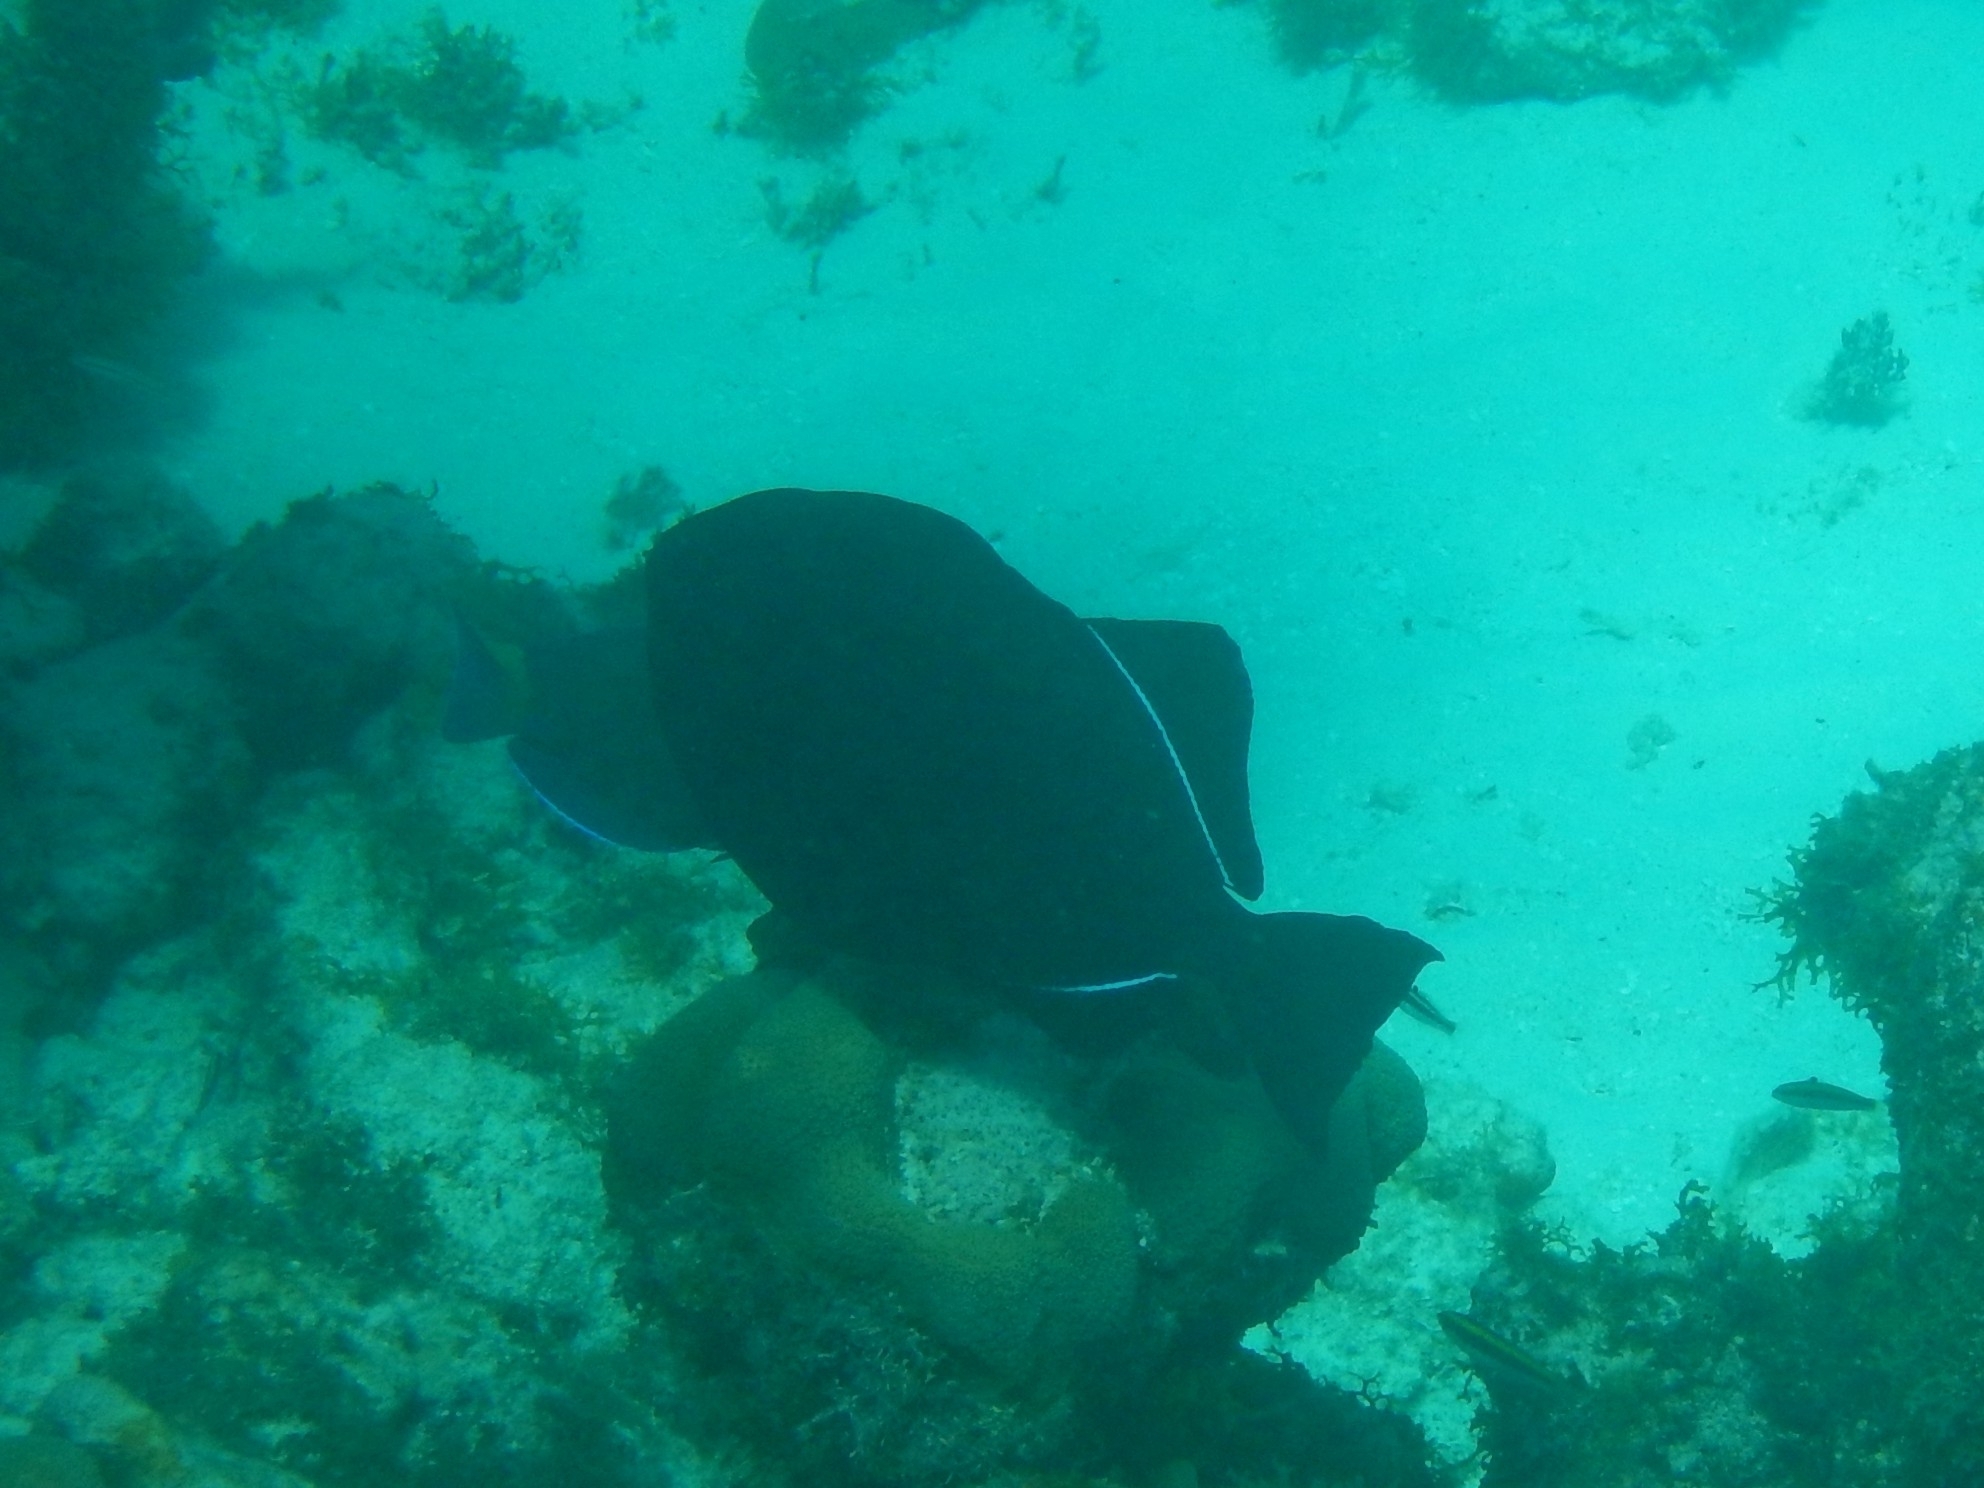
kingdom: Animalia
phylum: Chordata
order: Tetraodontiformes
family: Balistidae
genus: Melichthys
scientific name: Melichthys niger
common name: Black durgon
